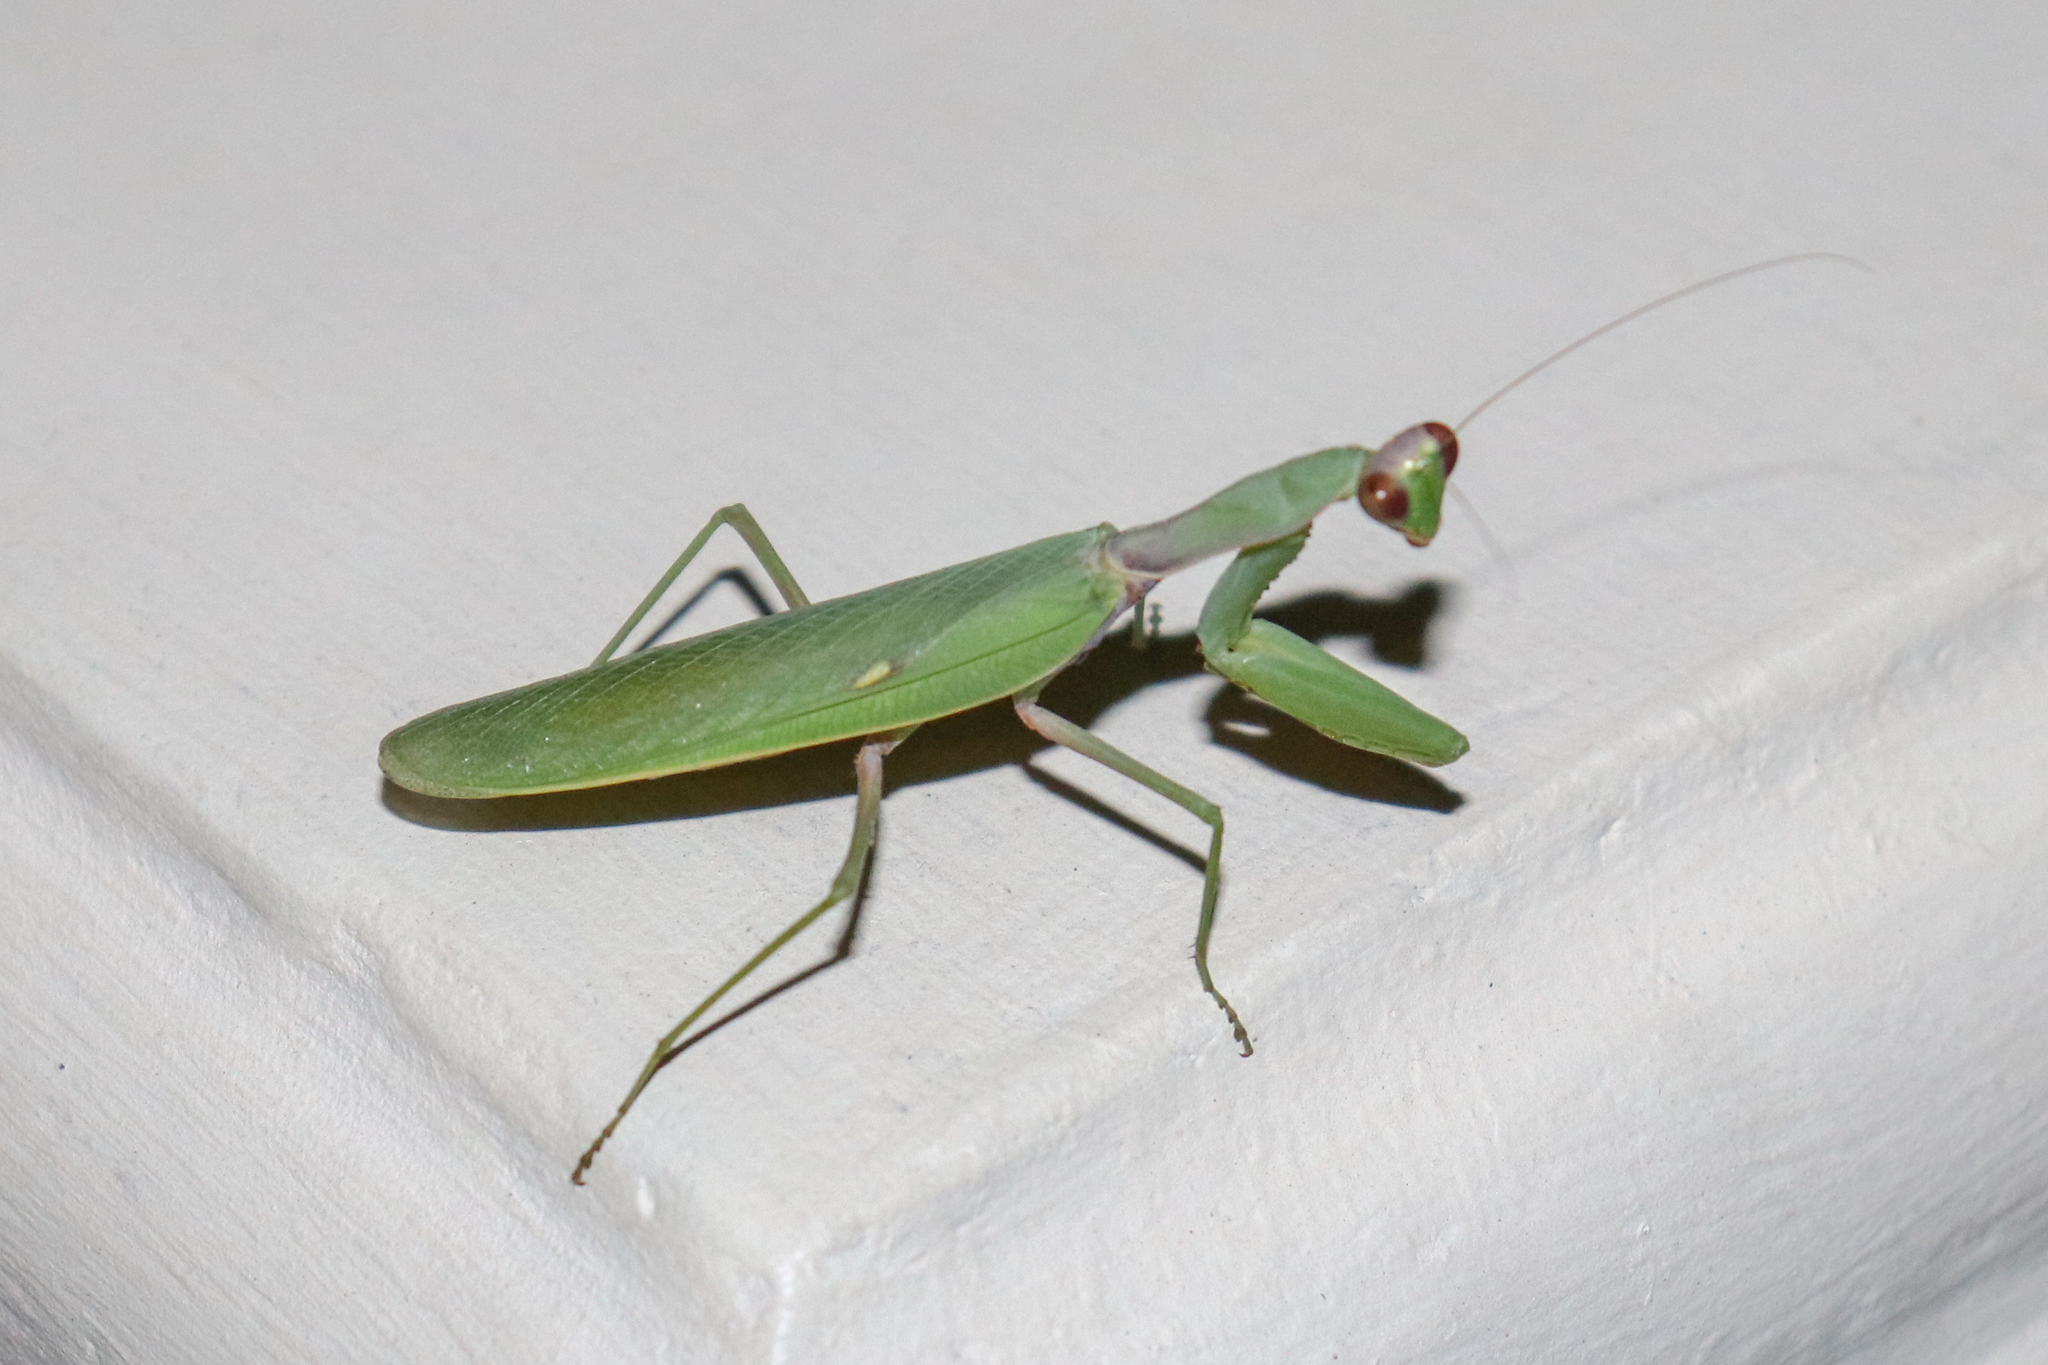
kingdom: Animalia
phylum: Arthropoda
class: Insecta
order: Mantodea
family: Mantidae
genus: Hierodula
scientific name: Hierodula transcaucasica
